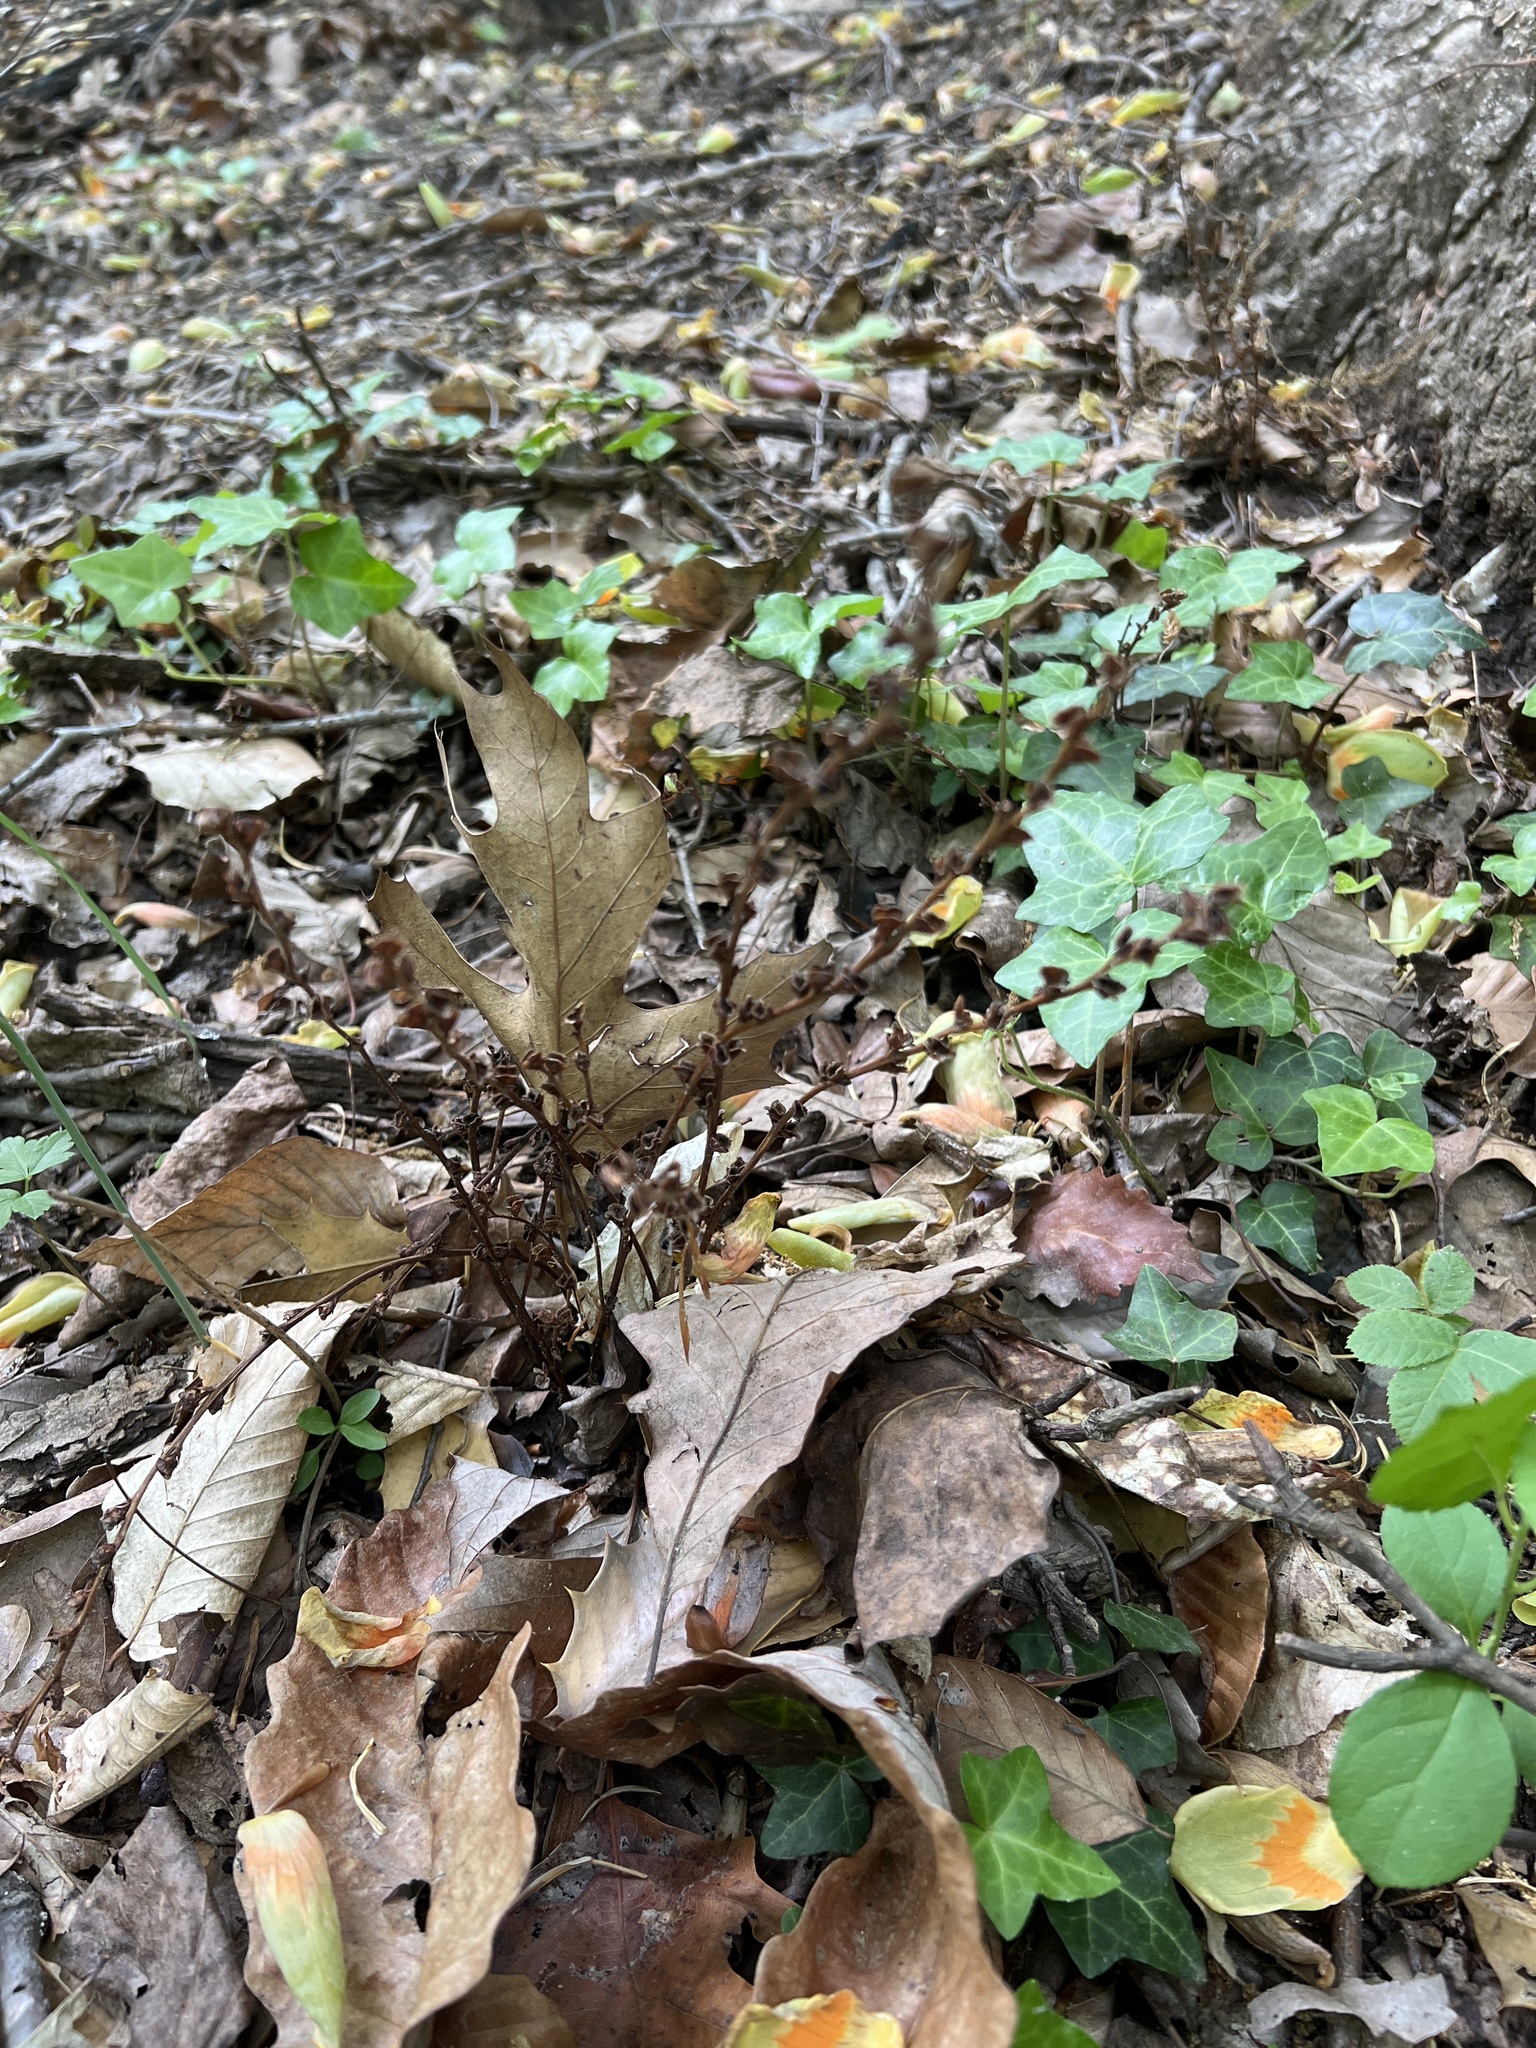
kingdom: Plantae
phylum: Tracheophyta
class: Magnoliopsida
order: Lamiales
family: Orobanchaceae
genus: Epifagus
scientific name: Epifagus virginiana
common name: Beechdrops
